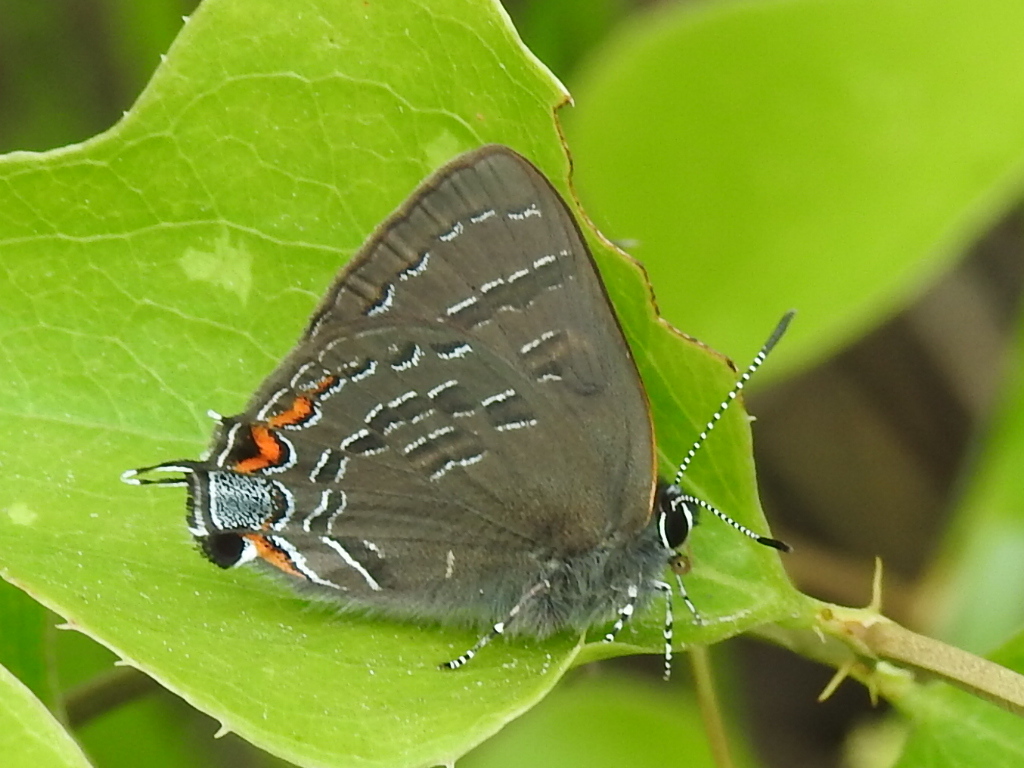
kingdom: Animalia
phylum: Arthropoda
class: Insecta
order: Lepidoptera
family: Lycaenidae
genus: Satyrium
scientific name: Satyrium calanus
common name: Banded hairstreak
